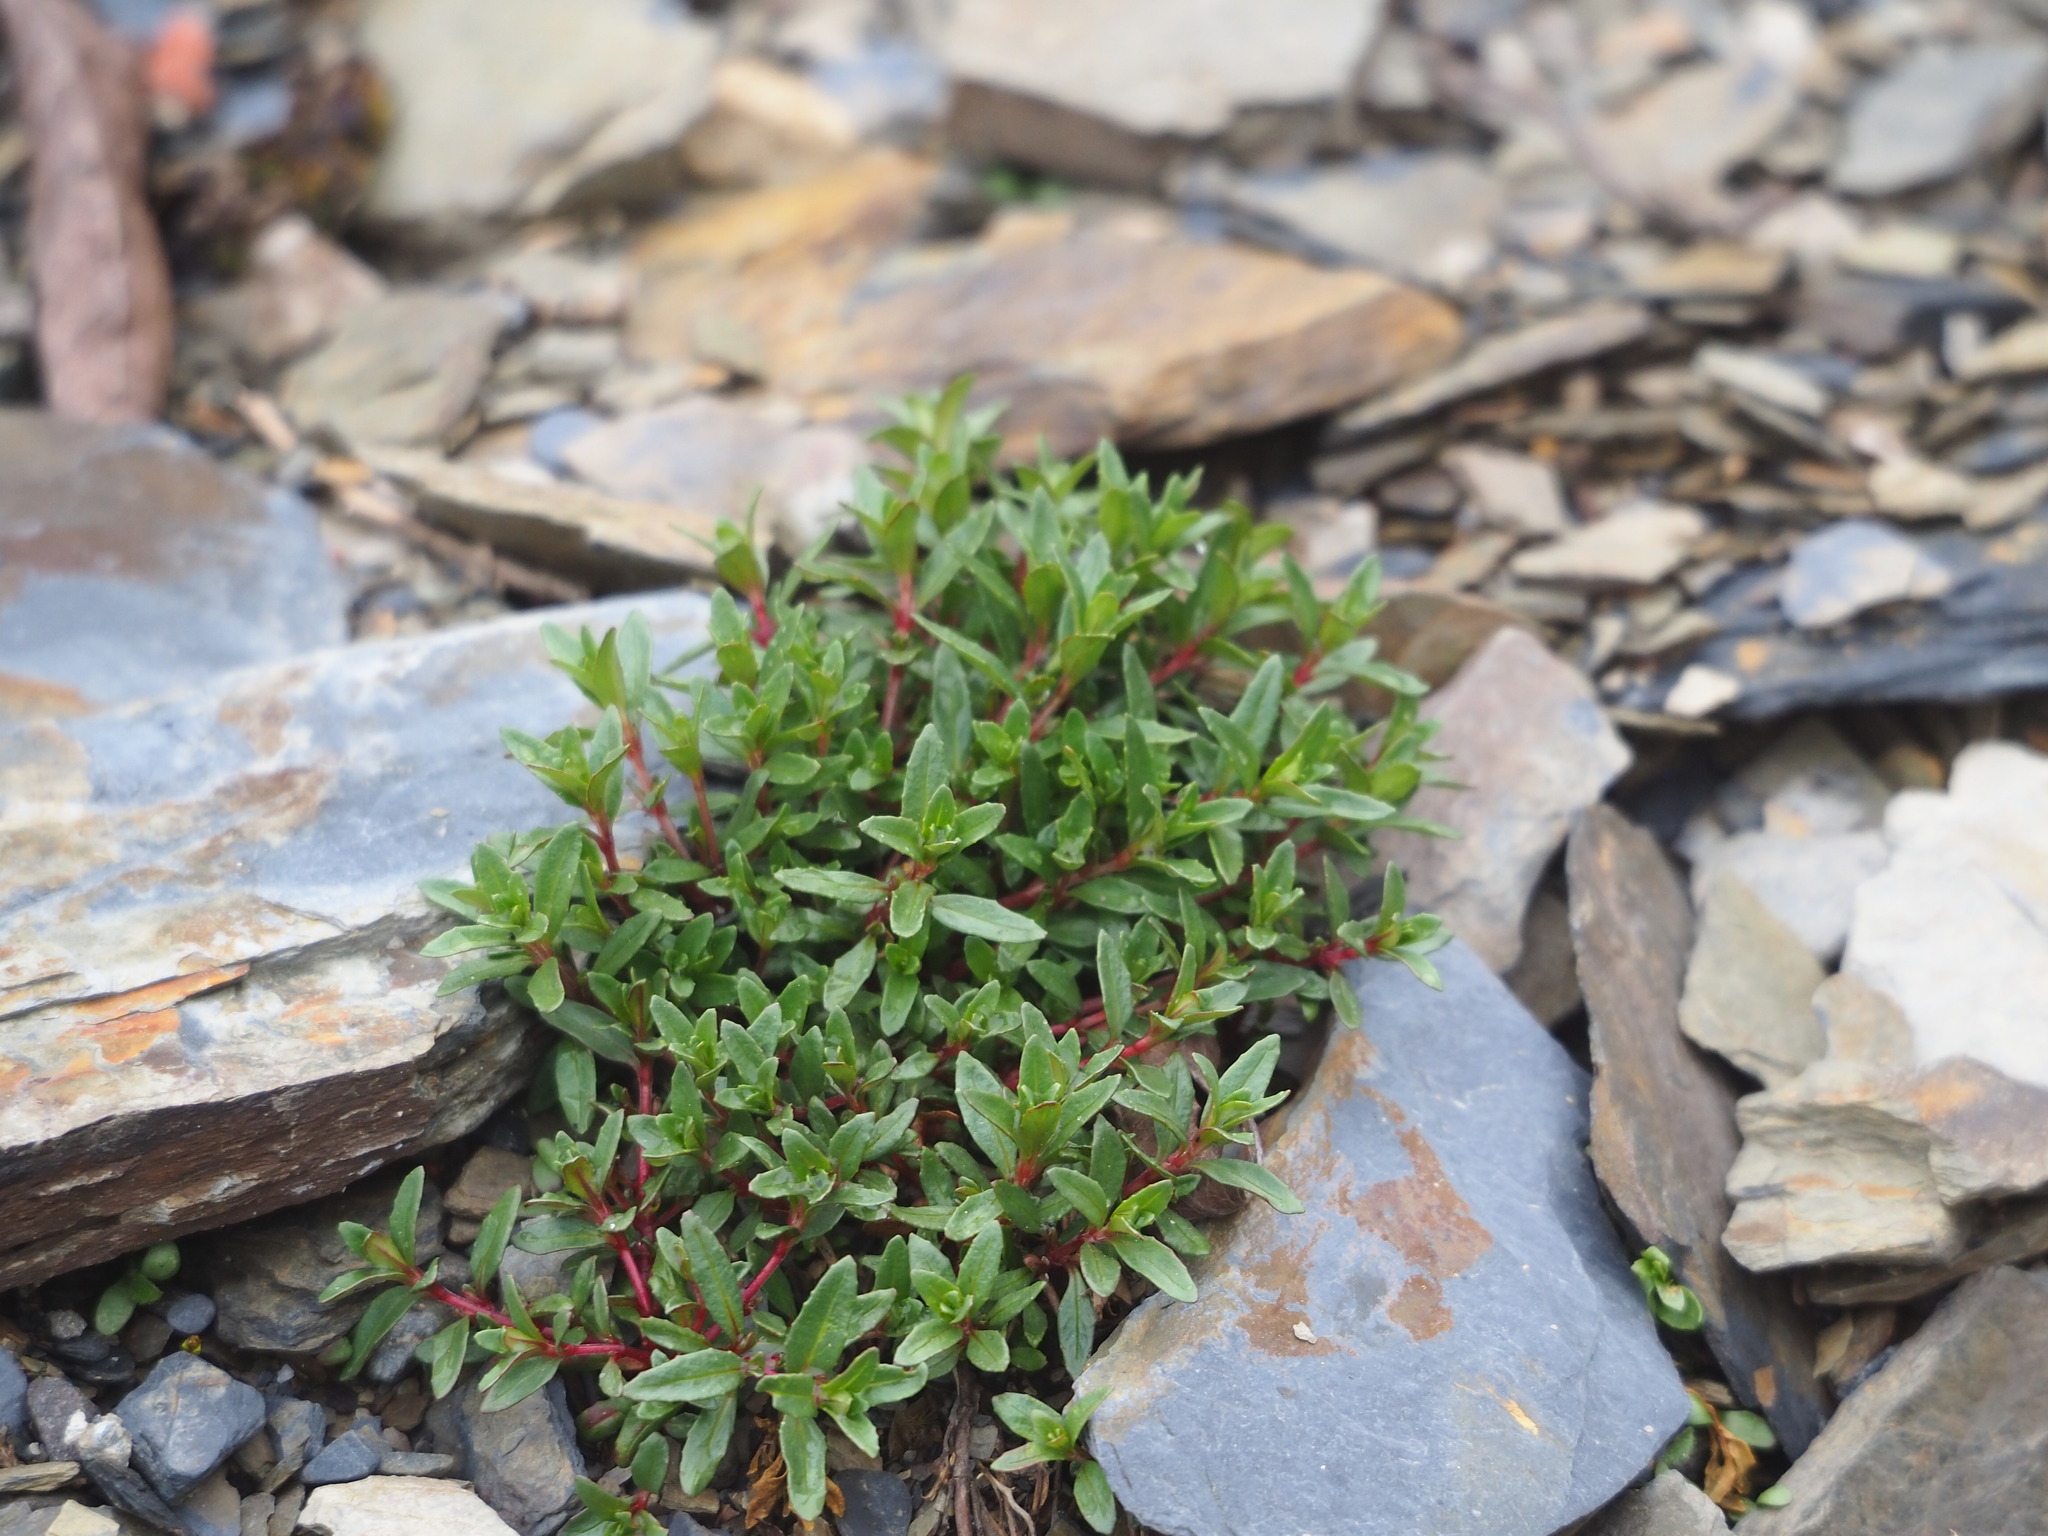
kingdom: Plantae
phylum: Tracheophyta
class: Magnoliopsida
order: Myrtales
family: Onagraceae
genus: Epilobium
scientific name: Epilobium hohuanense
